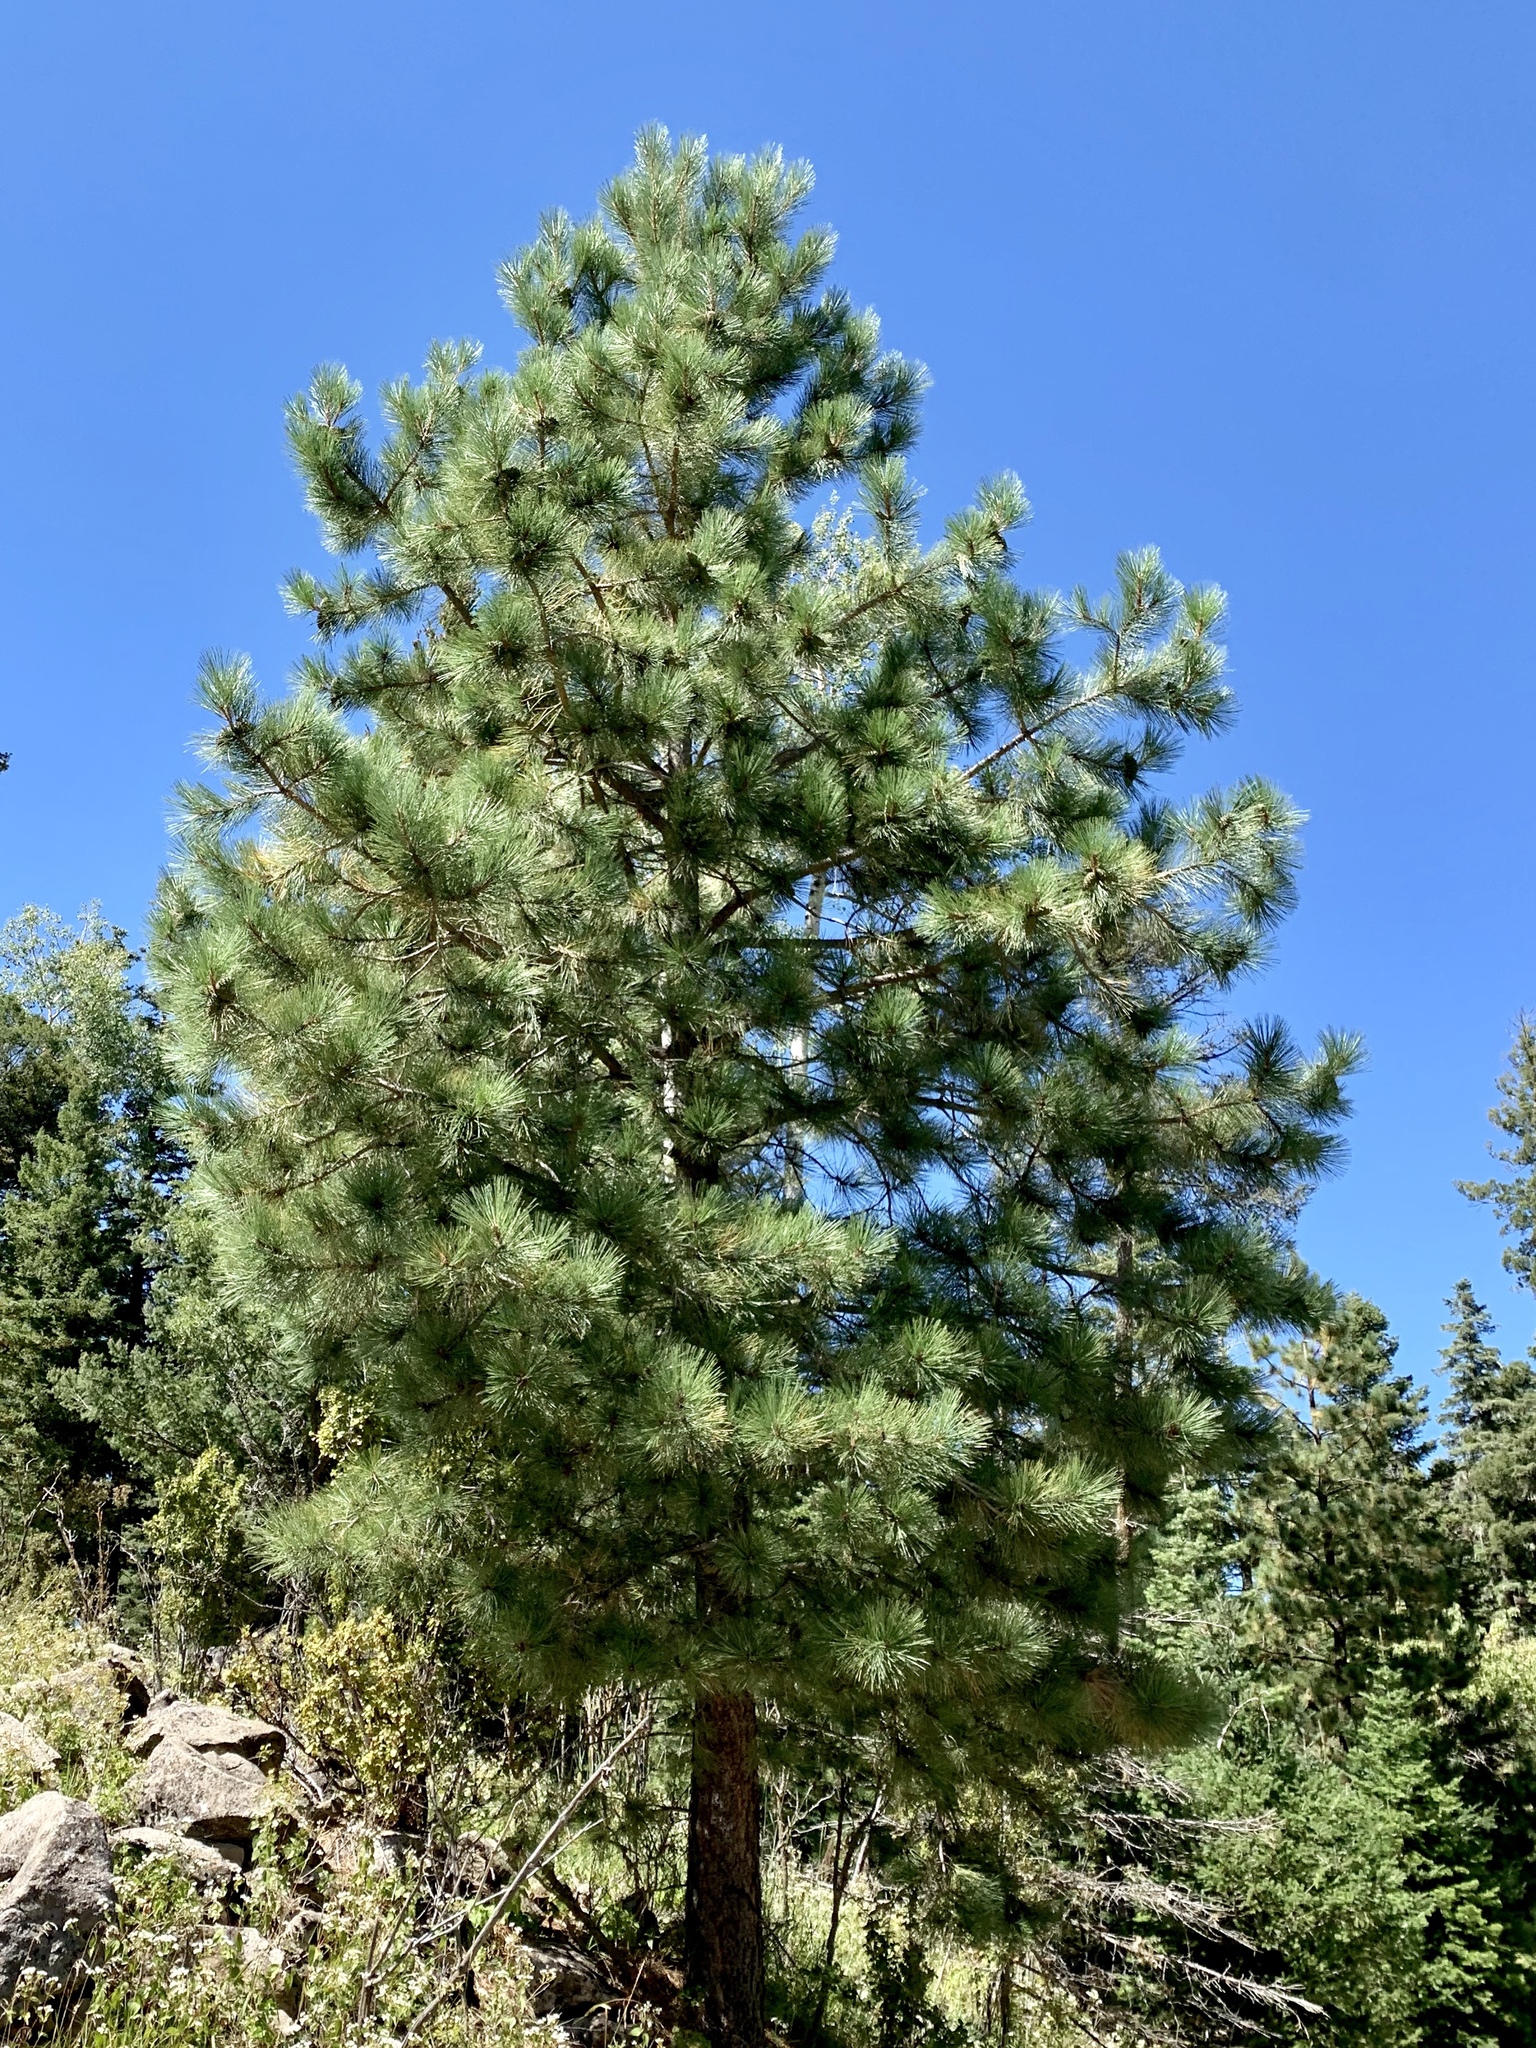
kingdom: Plantae
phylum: Tracheophyta
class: Pinopsida
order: Pinales
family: Pinaceae
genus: Pinus
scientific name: Pinus ponderosa
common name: Western yellow-pine
